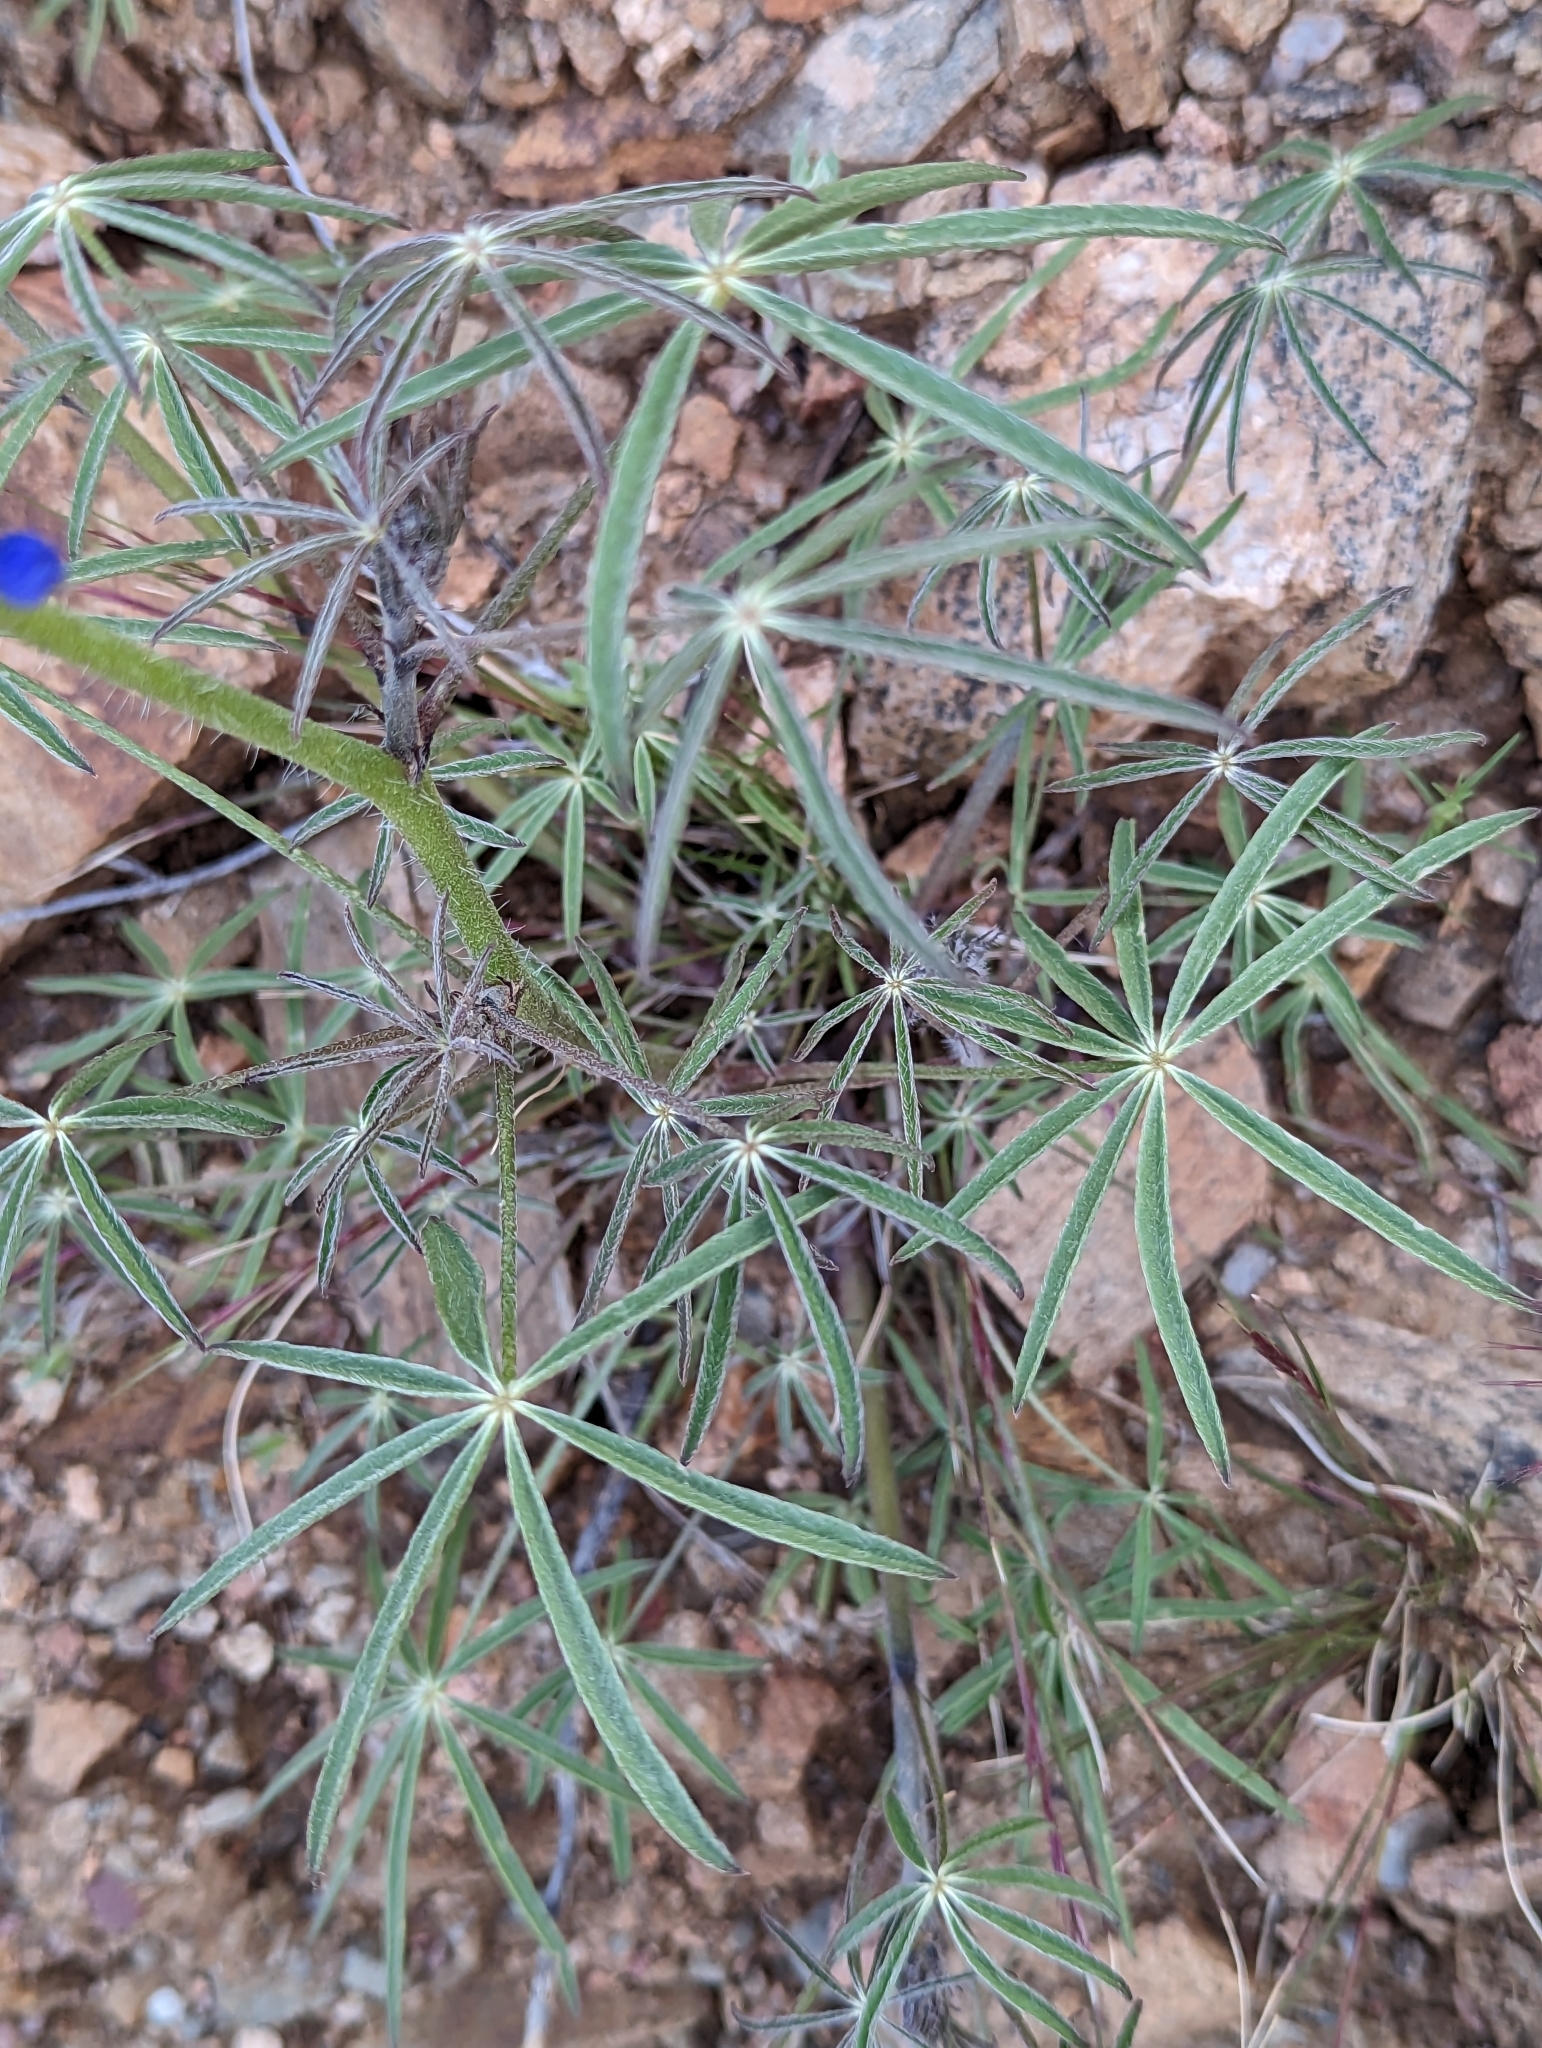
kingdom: Plantae
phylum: Tracheophyta
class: Magnoliopsida
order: Fabales
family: Fabaceae
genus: Lupinus
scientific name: Lupinus sparsiflorus
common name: Coulter's lupine
